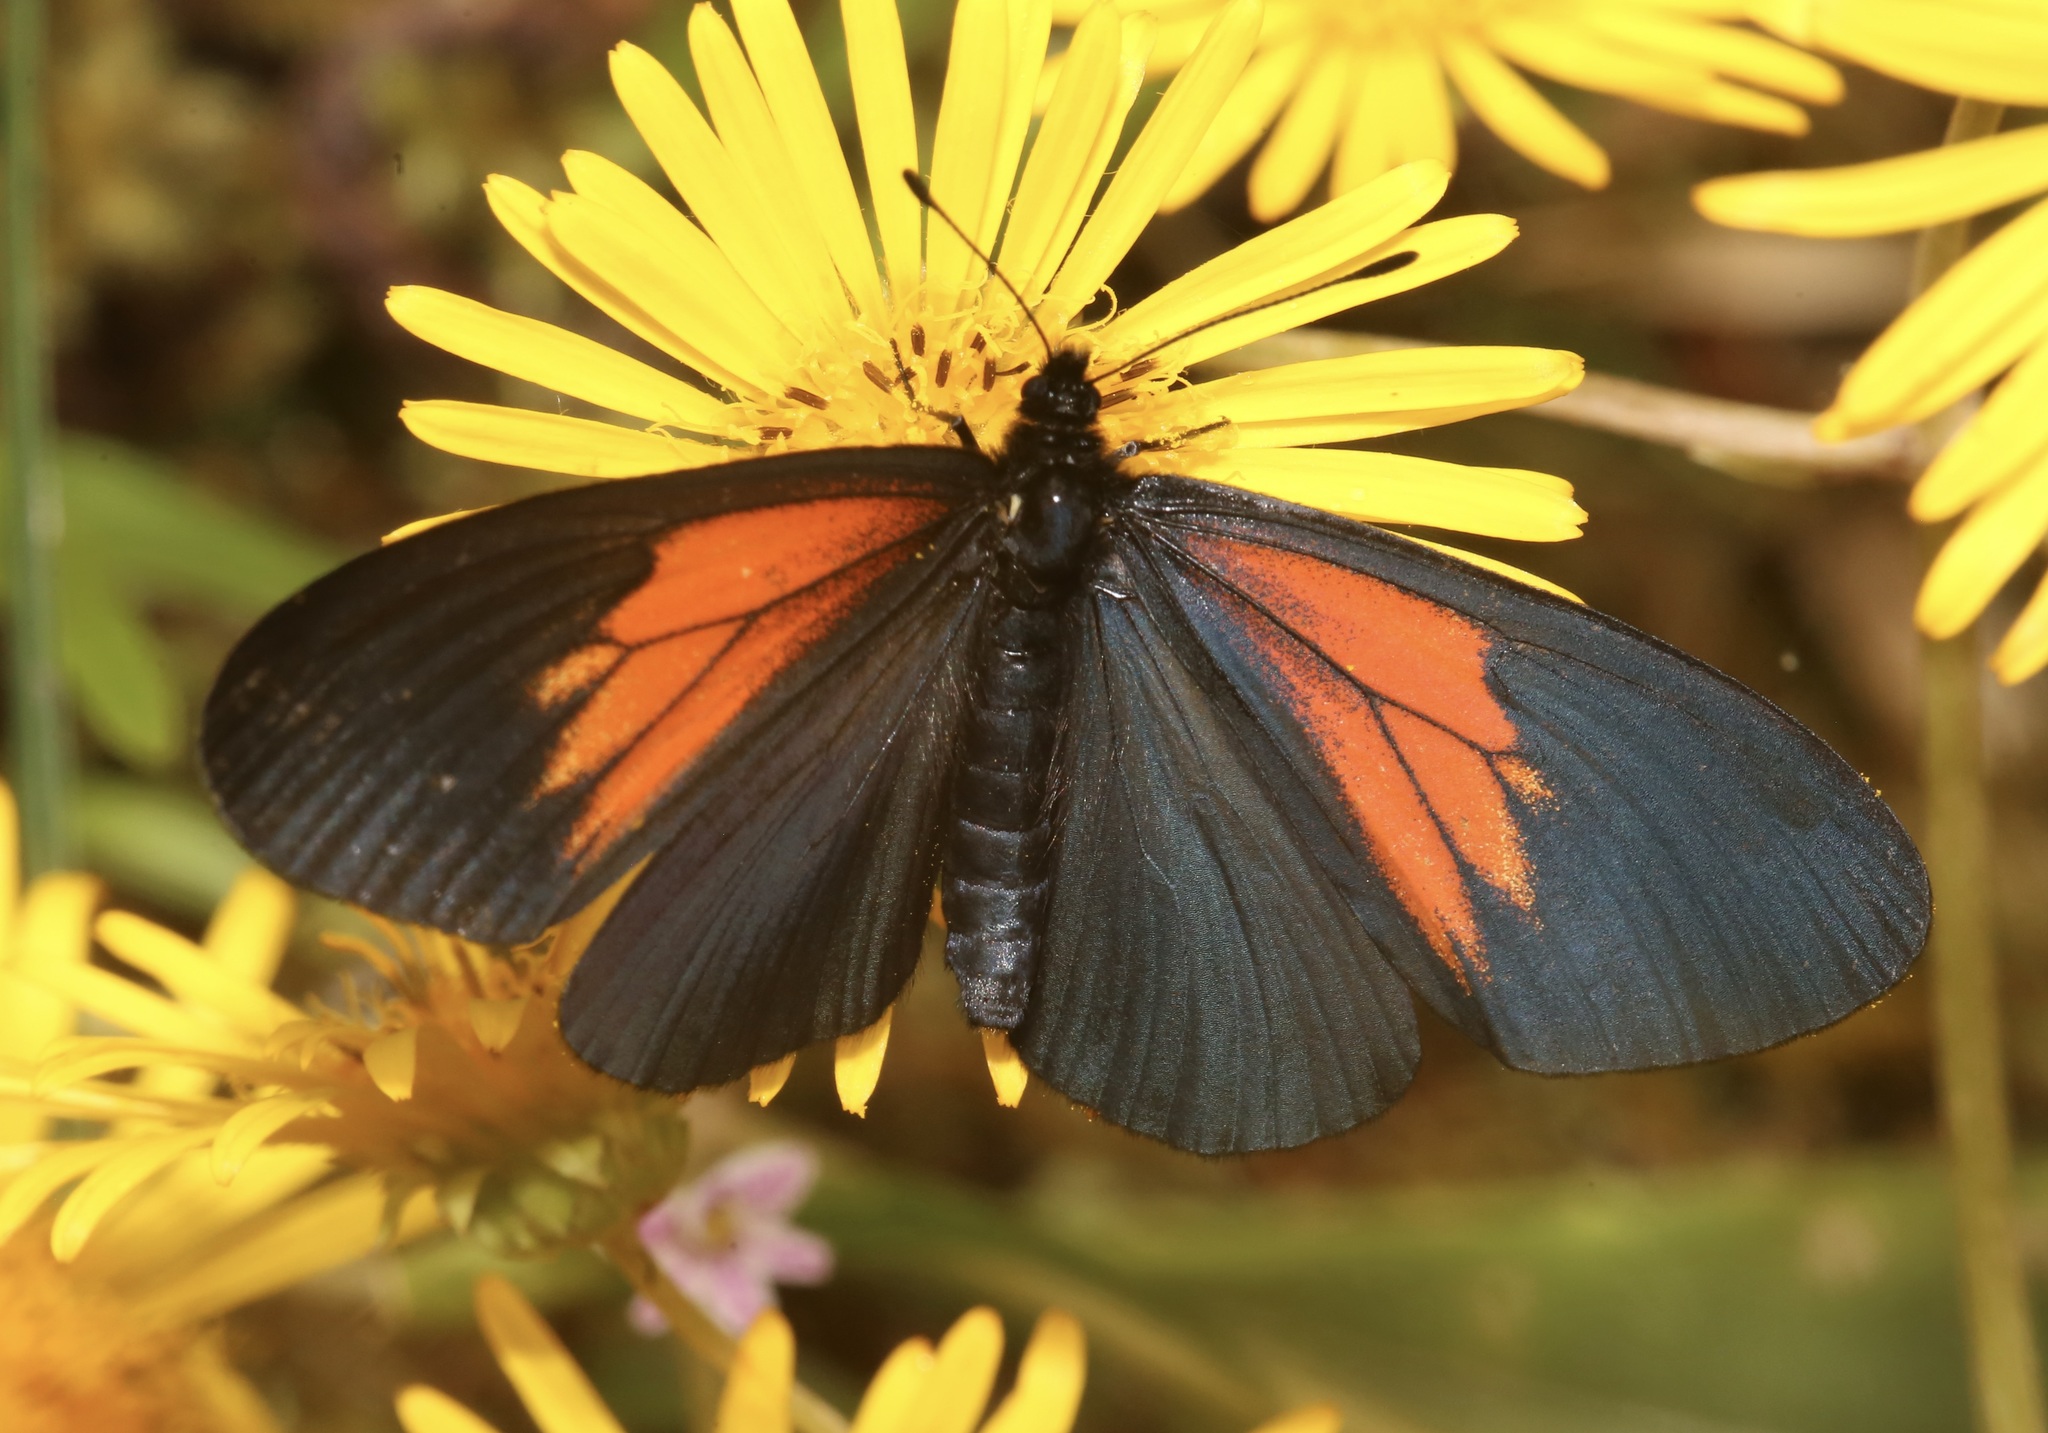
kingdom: Animalia
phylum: Arthropoda
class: Insecta
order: Lepidoptera
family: Nymphalidae
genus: Acraea
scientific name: Acraea Altinote ozomene
